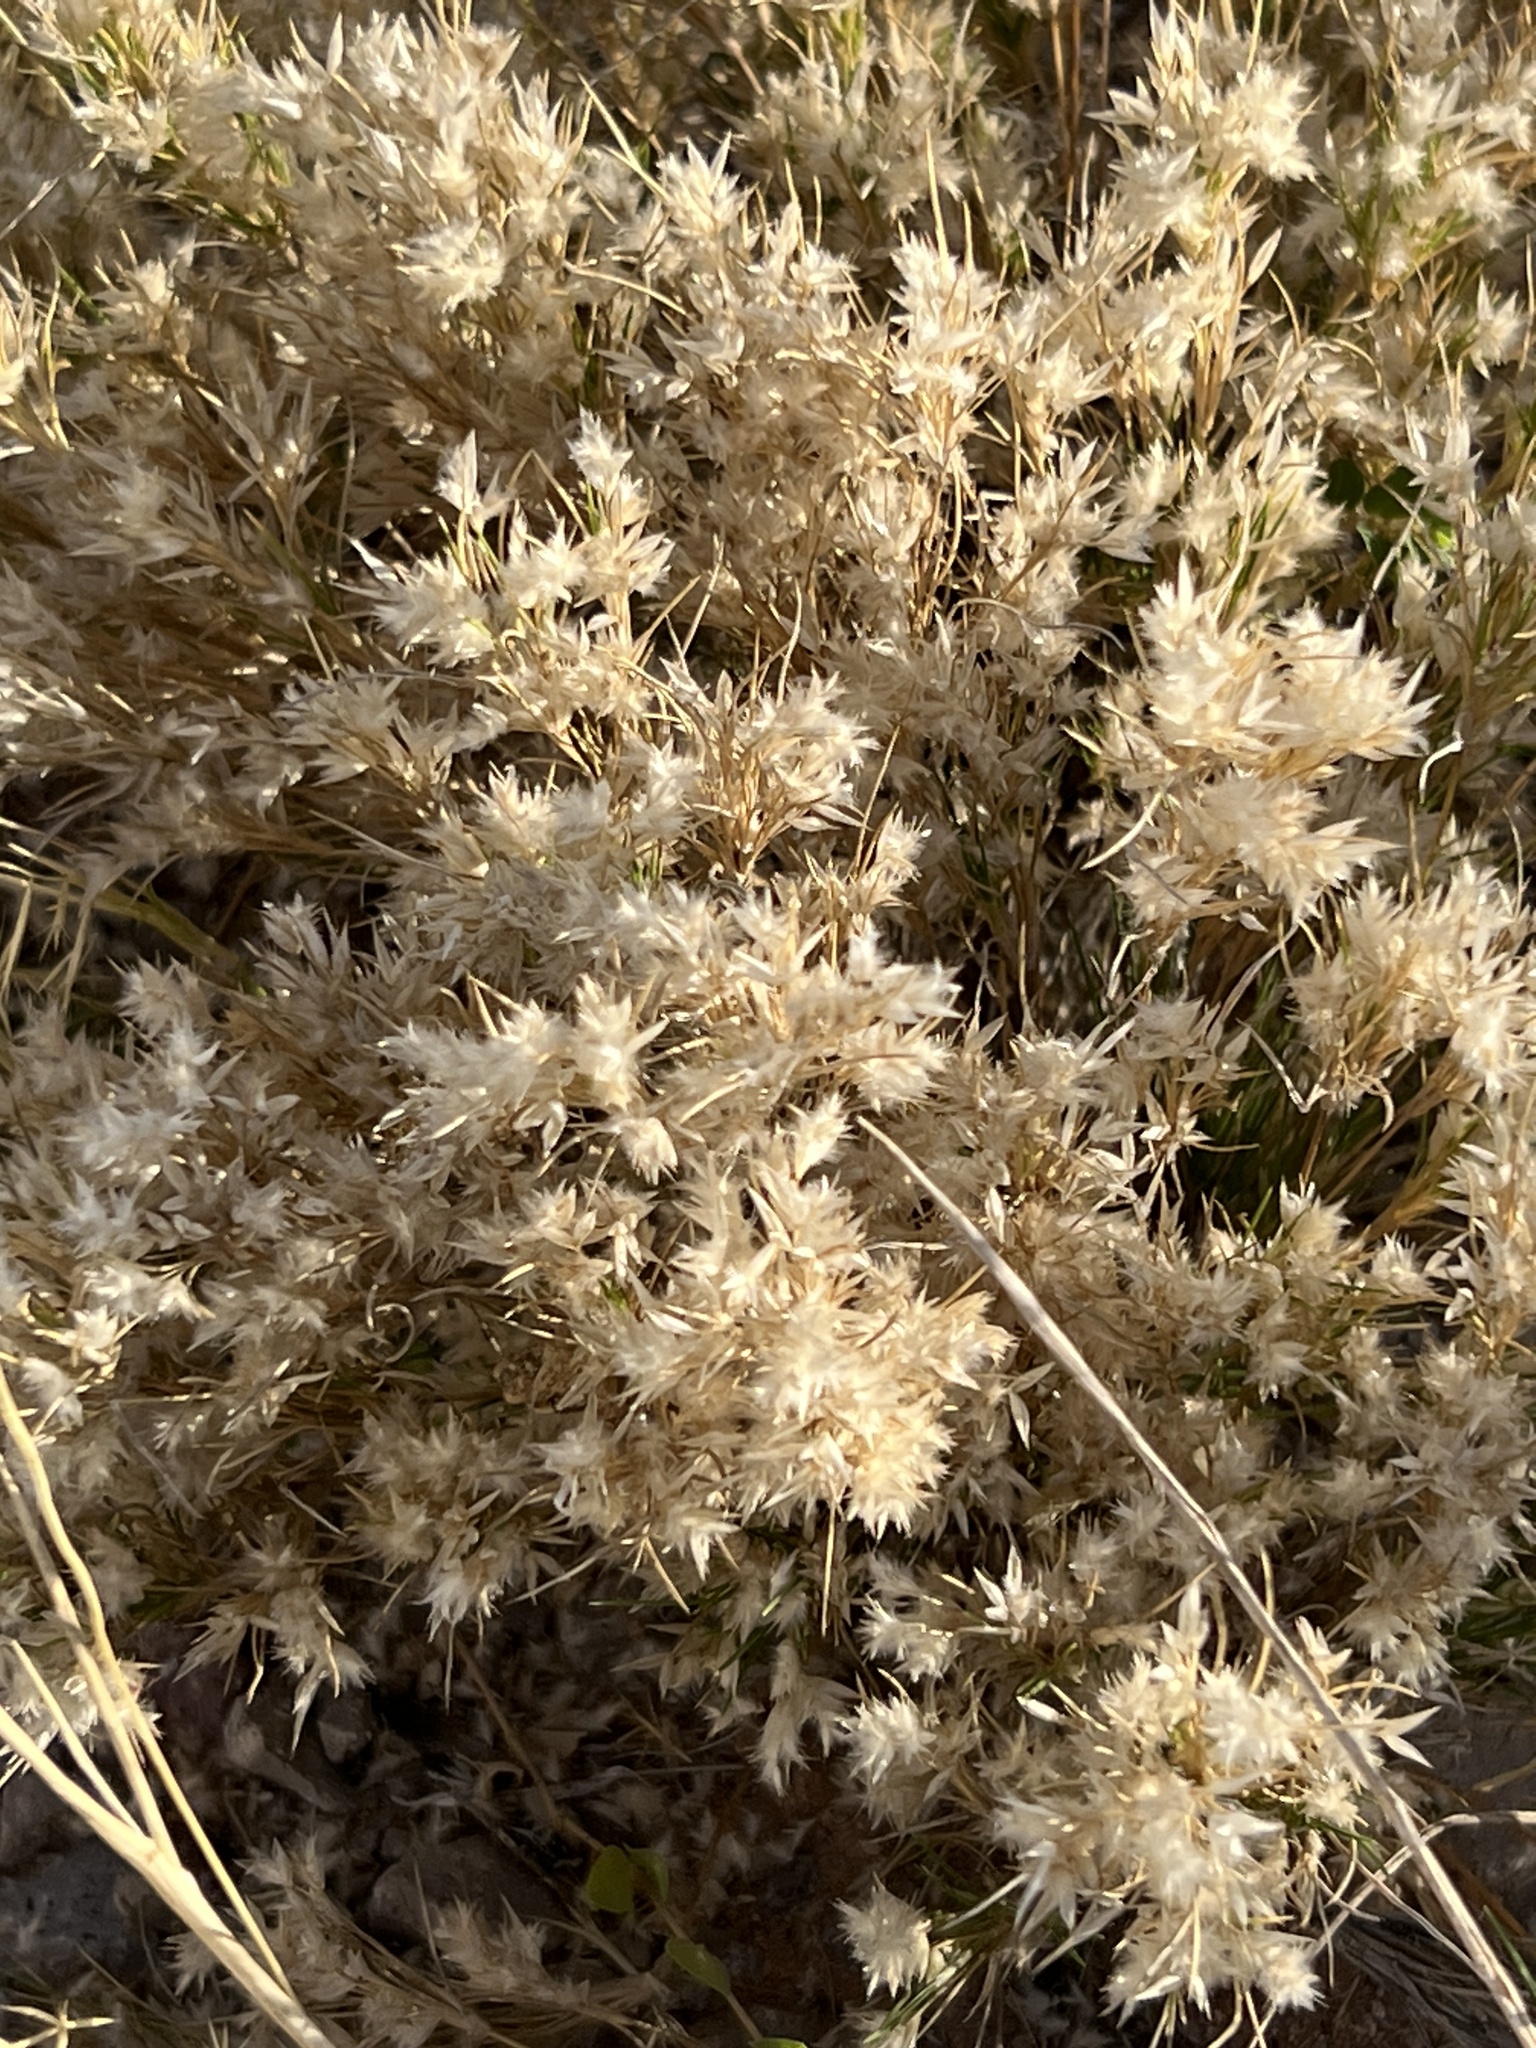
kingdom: Plantae
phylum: Tracheophyta
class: Liliopsida
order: Poales
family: Poaceae
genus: Dasyochloa
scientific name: Dasyochloa pulchella
